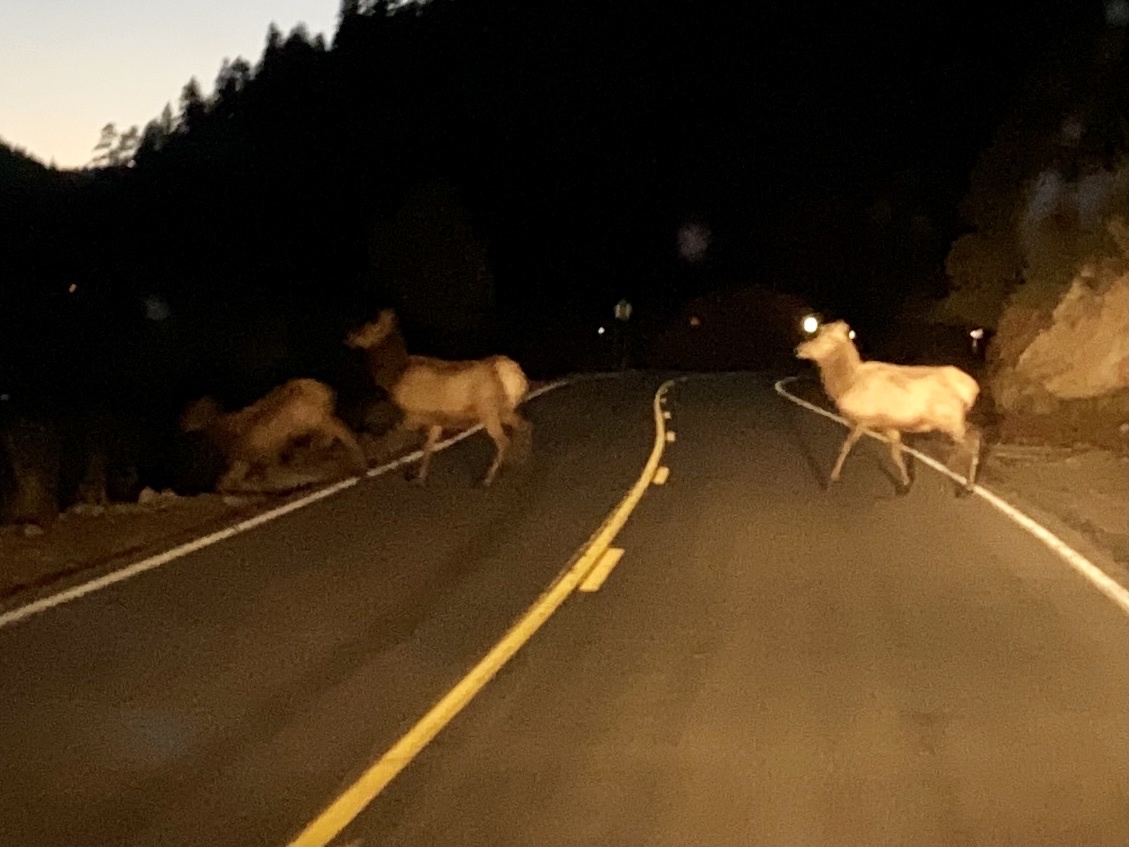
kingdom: Animalia
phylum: Chordata
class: Mammalia
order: Artiodactyla
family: Cervidae
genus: Cervus
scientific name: Cervus elaphus
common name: Red deer
